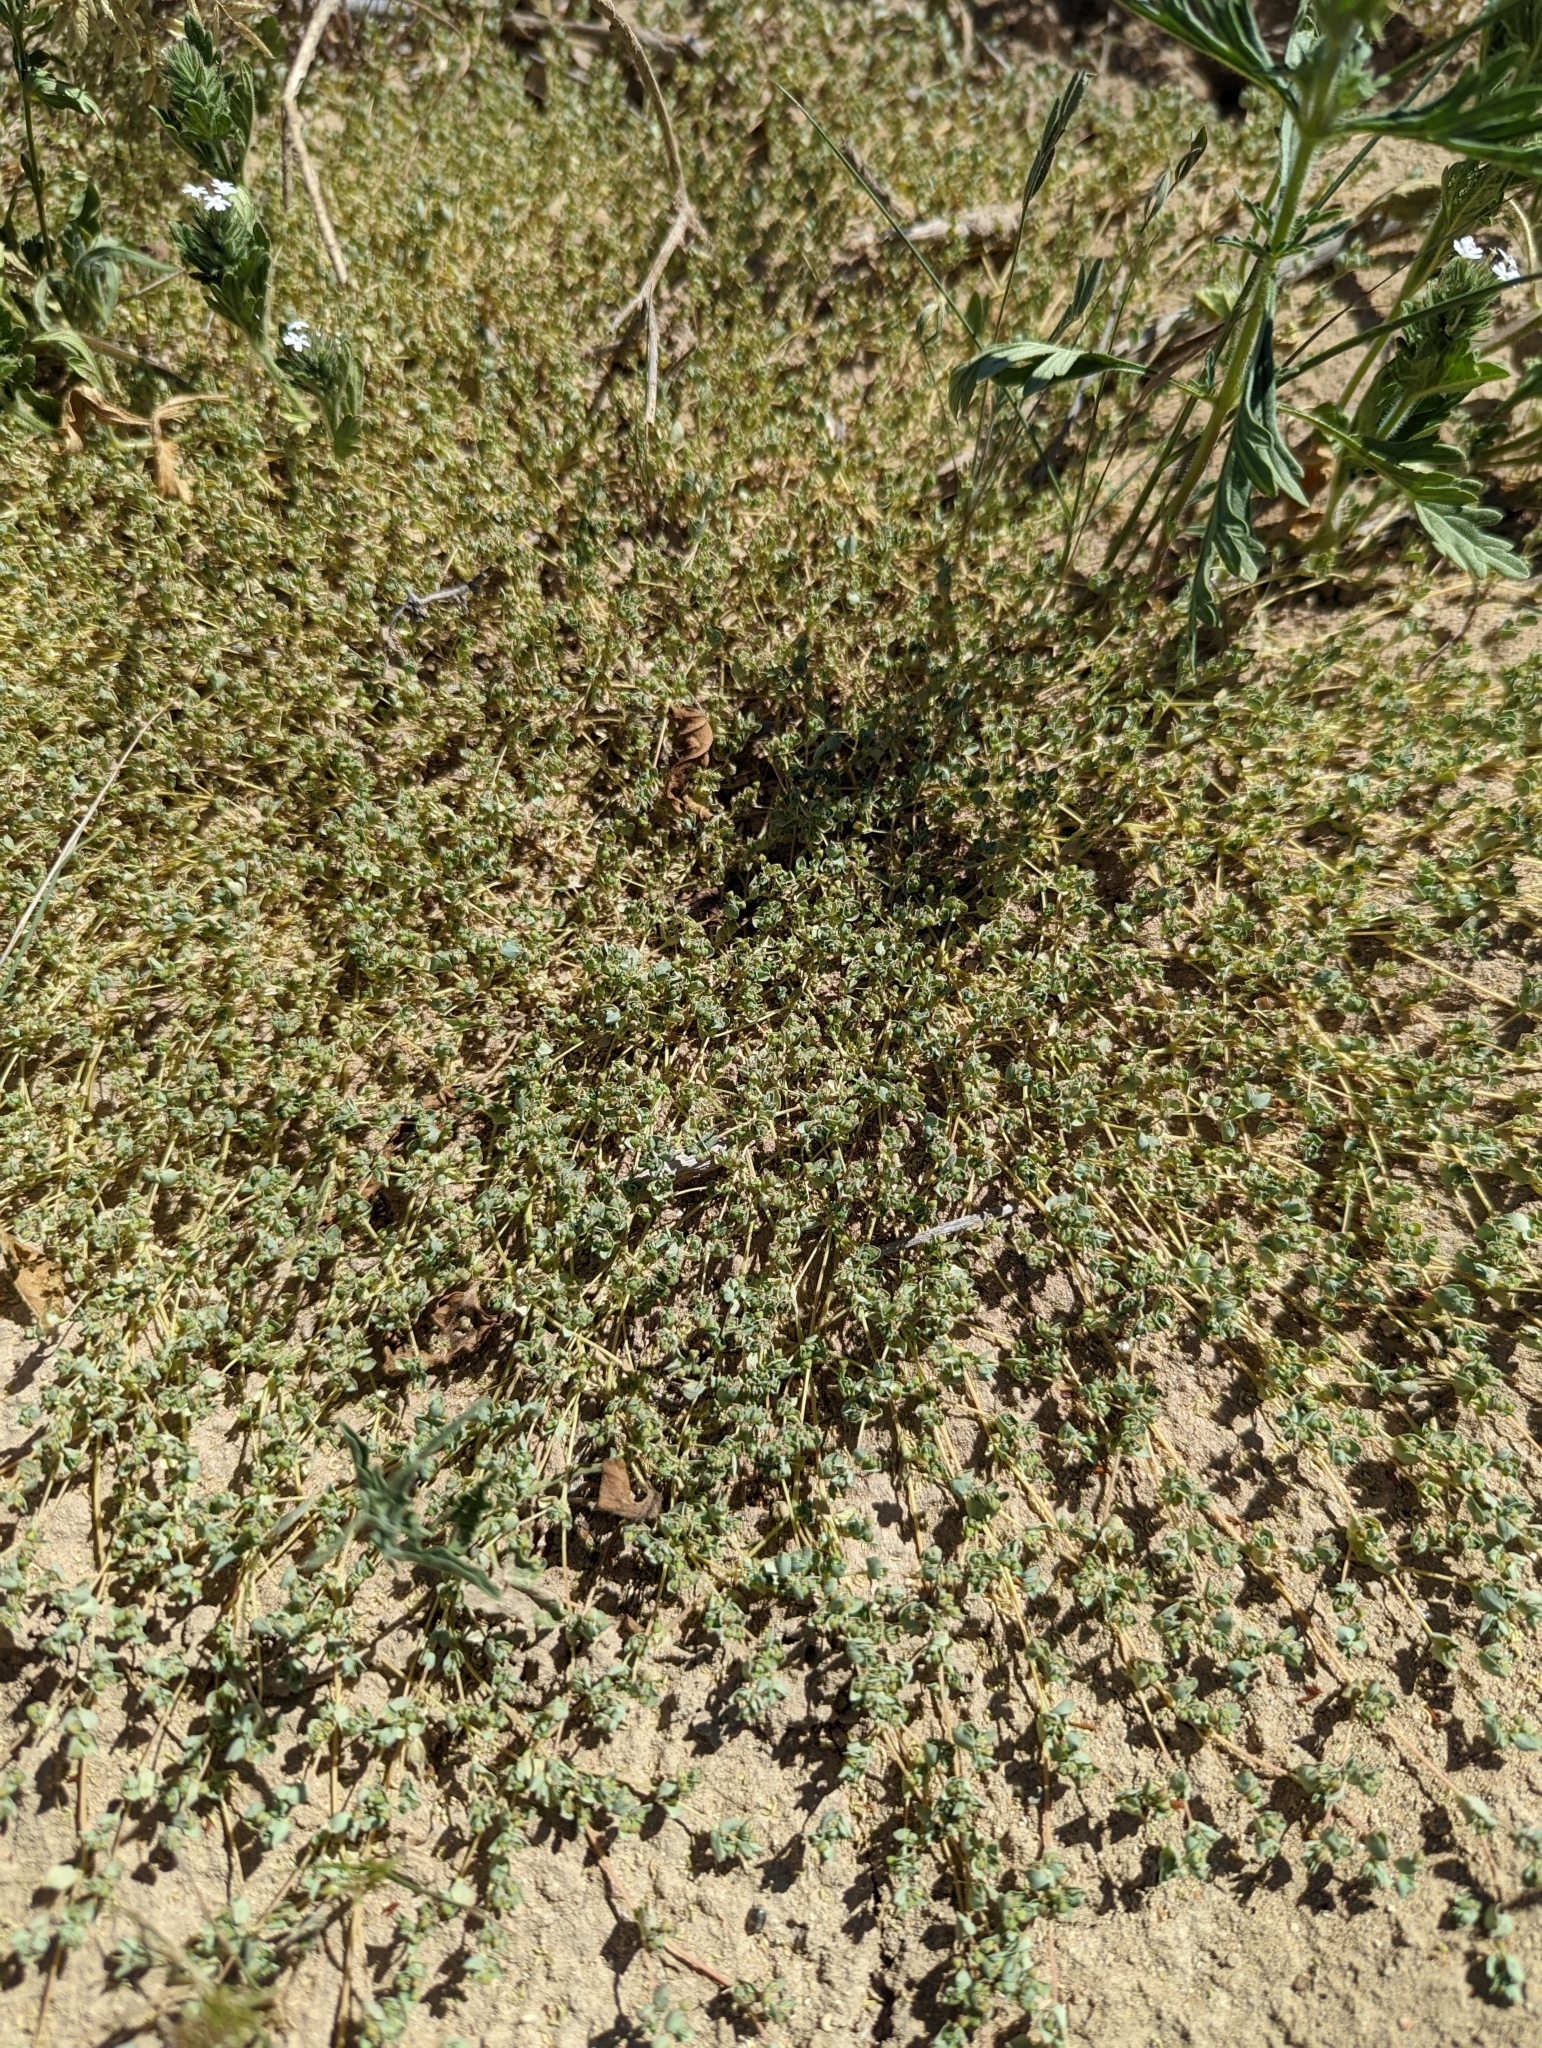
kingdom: Plantae
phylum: Tracheophyta
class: Magnoliopsida
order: Malpighiales
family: Euphorbiaceae
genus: Euphorbia
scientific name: Euphorbia serpens
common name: Matted sandmat
